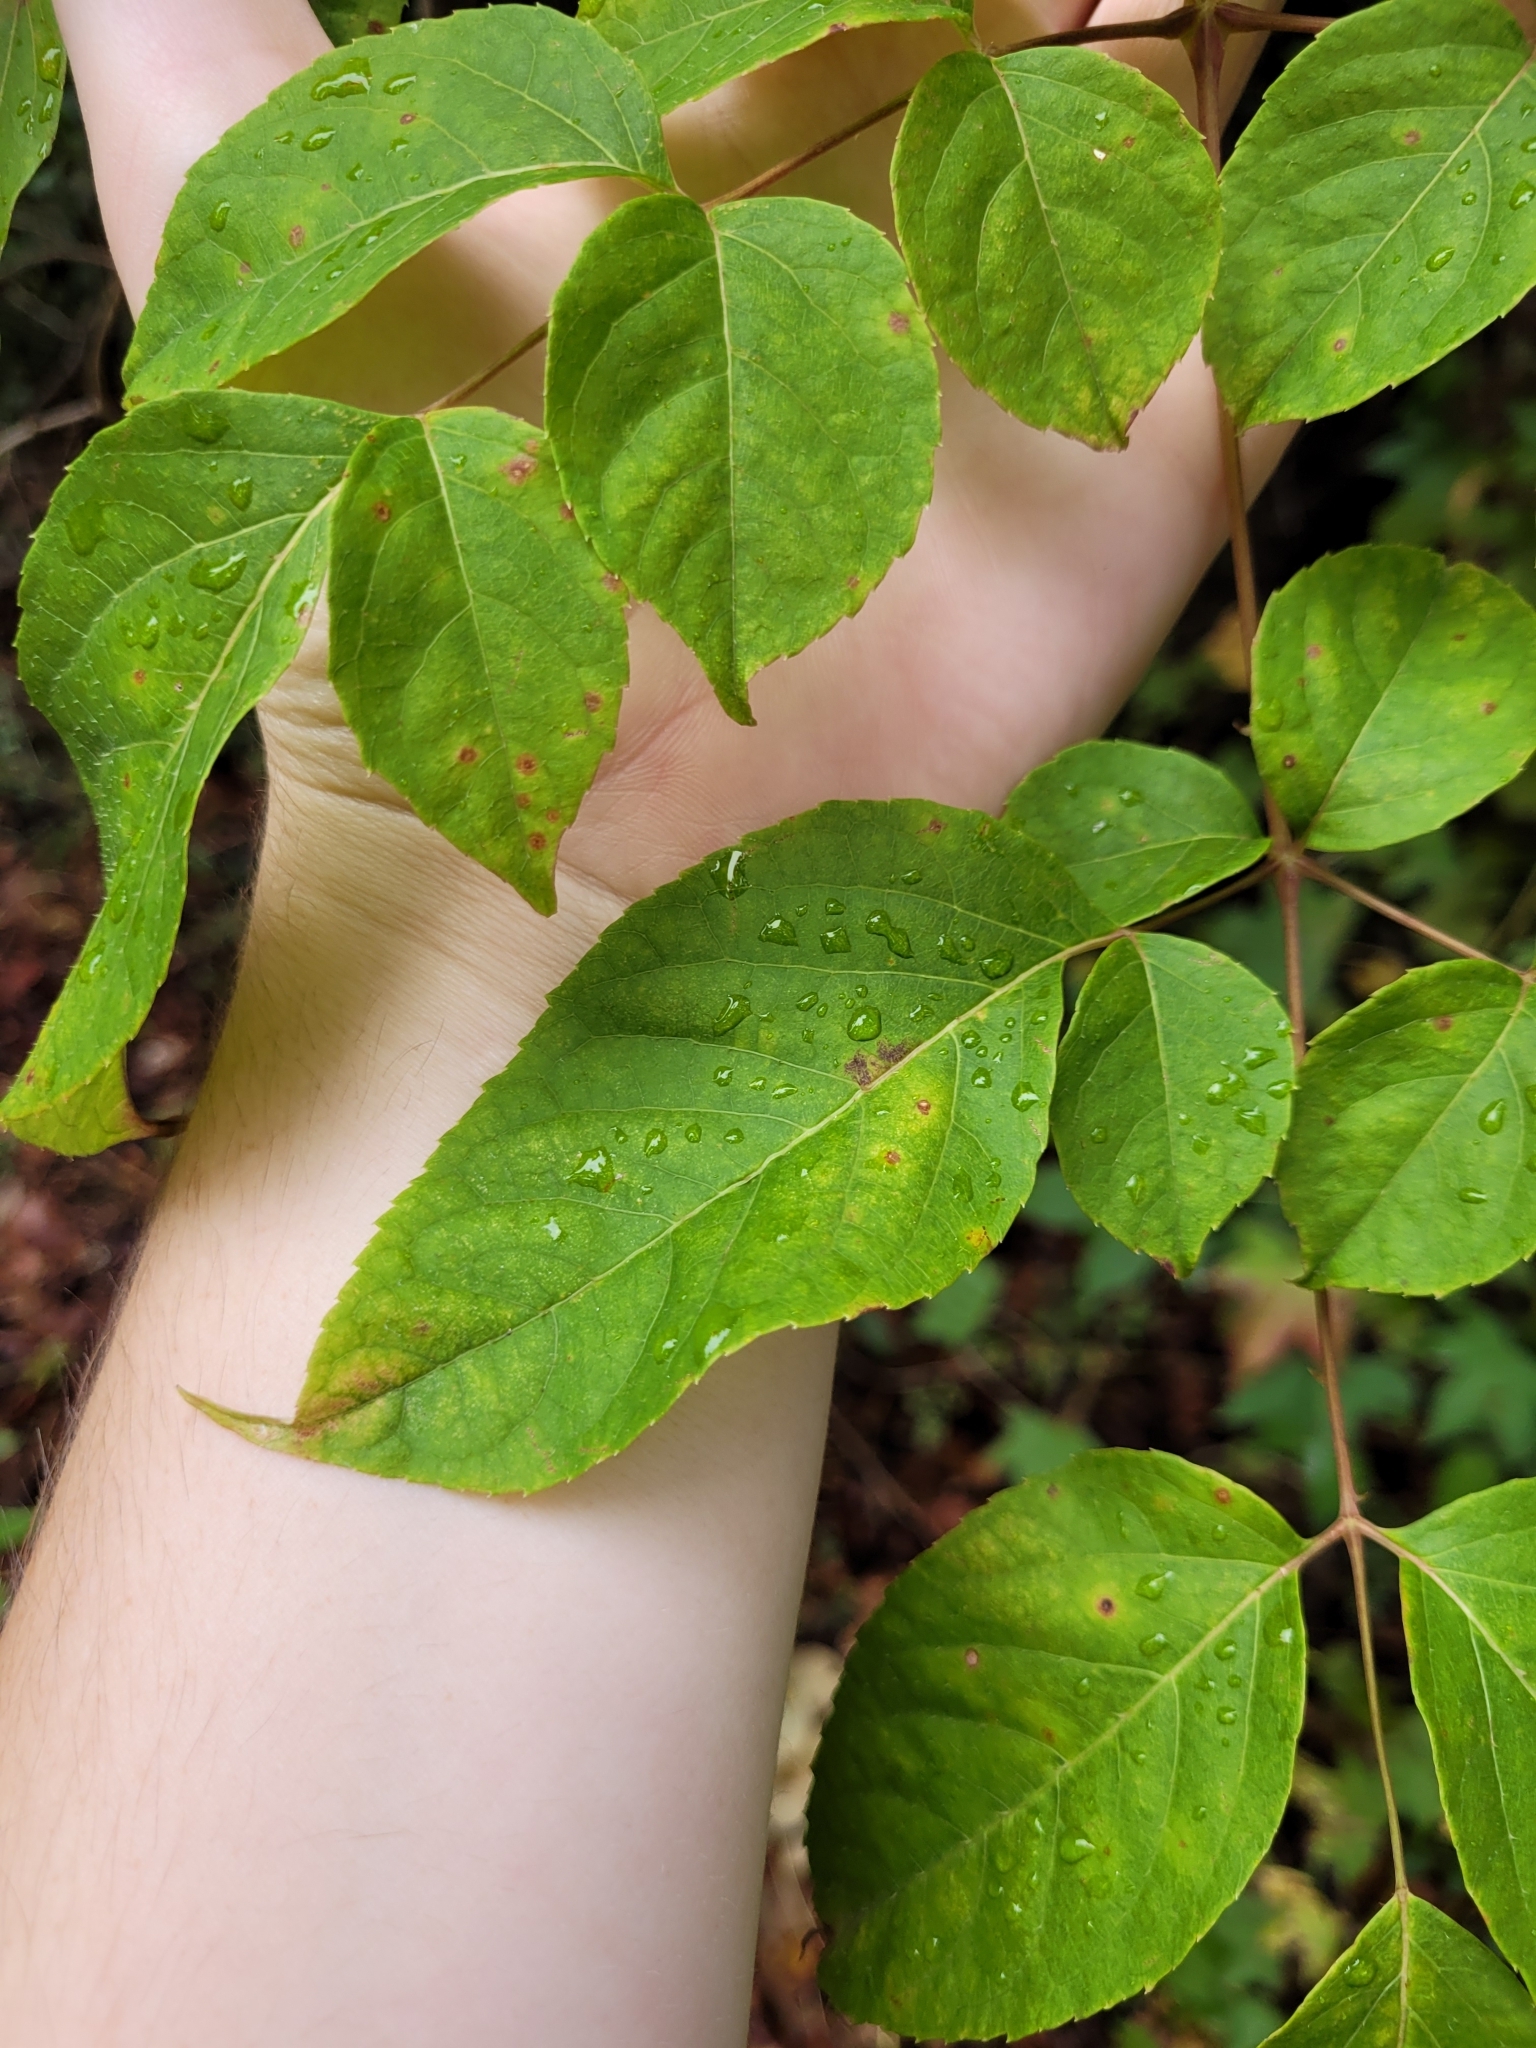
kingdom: Plantae
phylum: Tracheophyta
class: Magnoliopsida
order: Apiales
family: Araliaceae
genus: Aralia
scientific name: Aralia spinosa
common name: Hercules'-club
